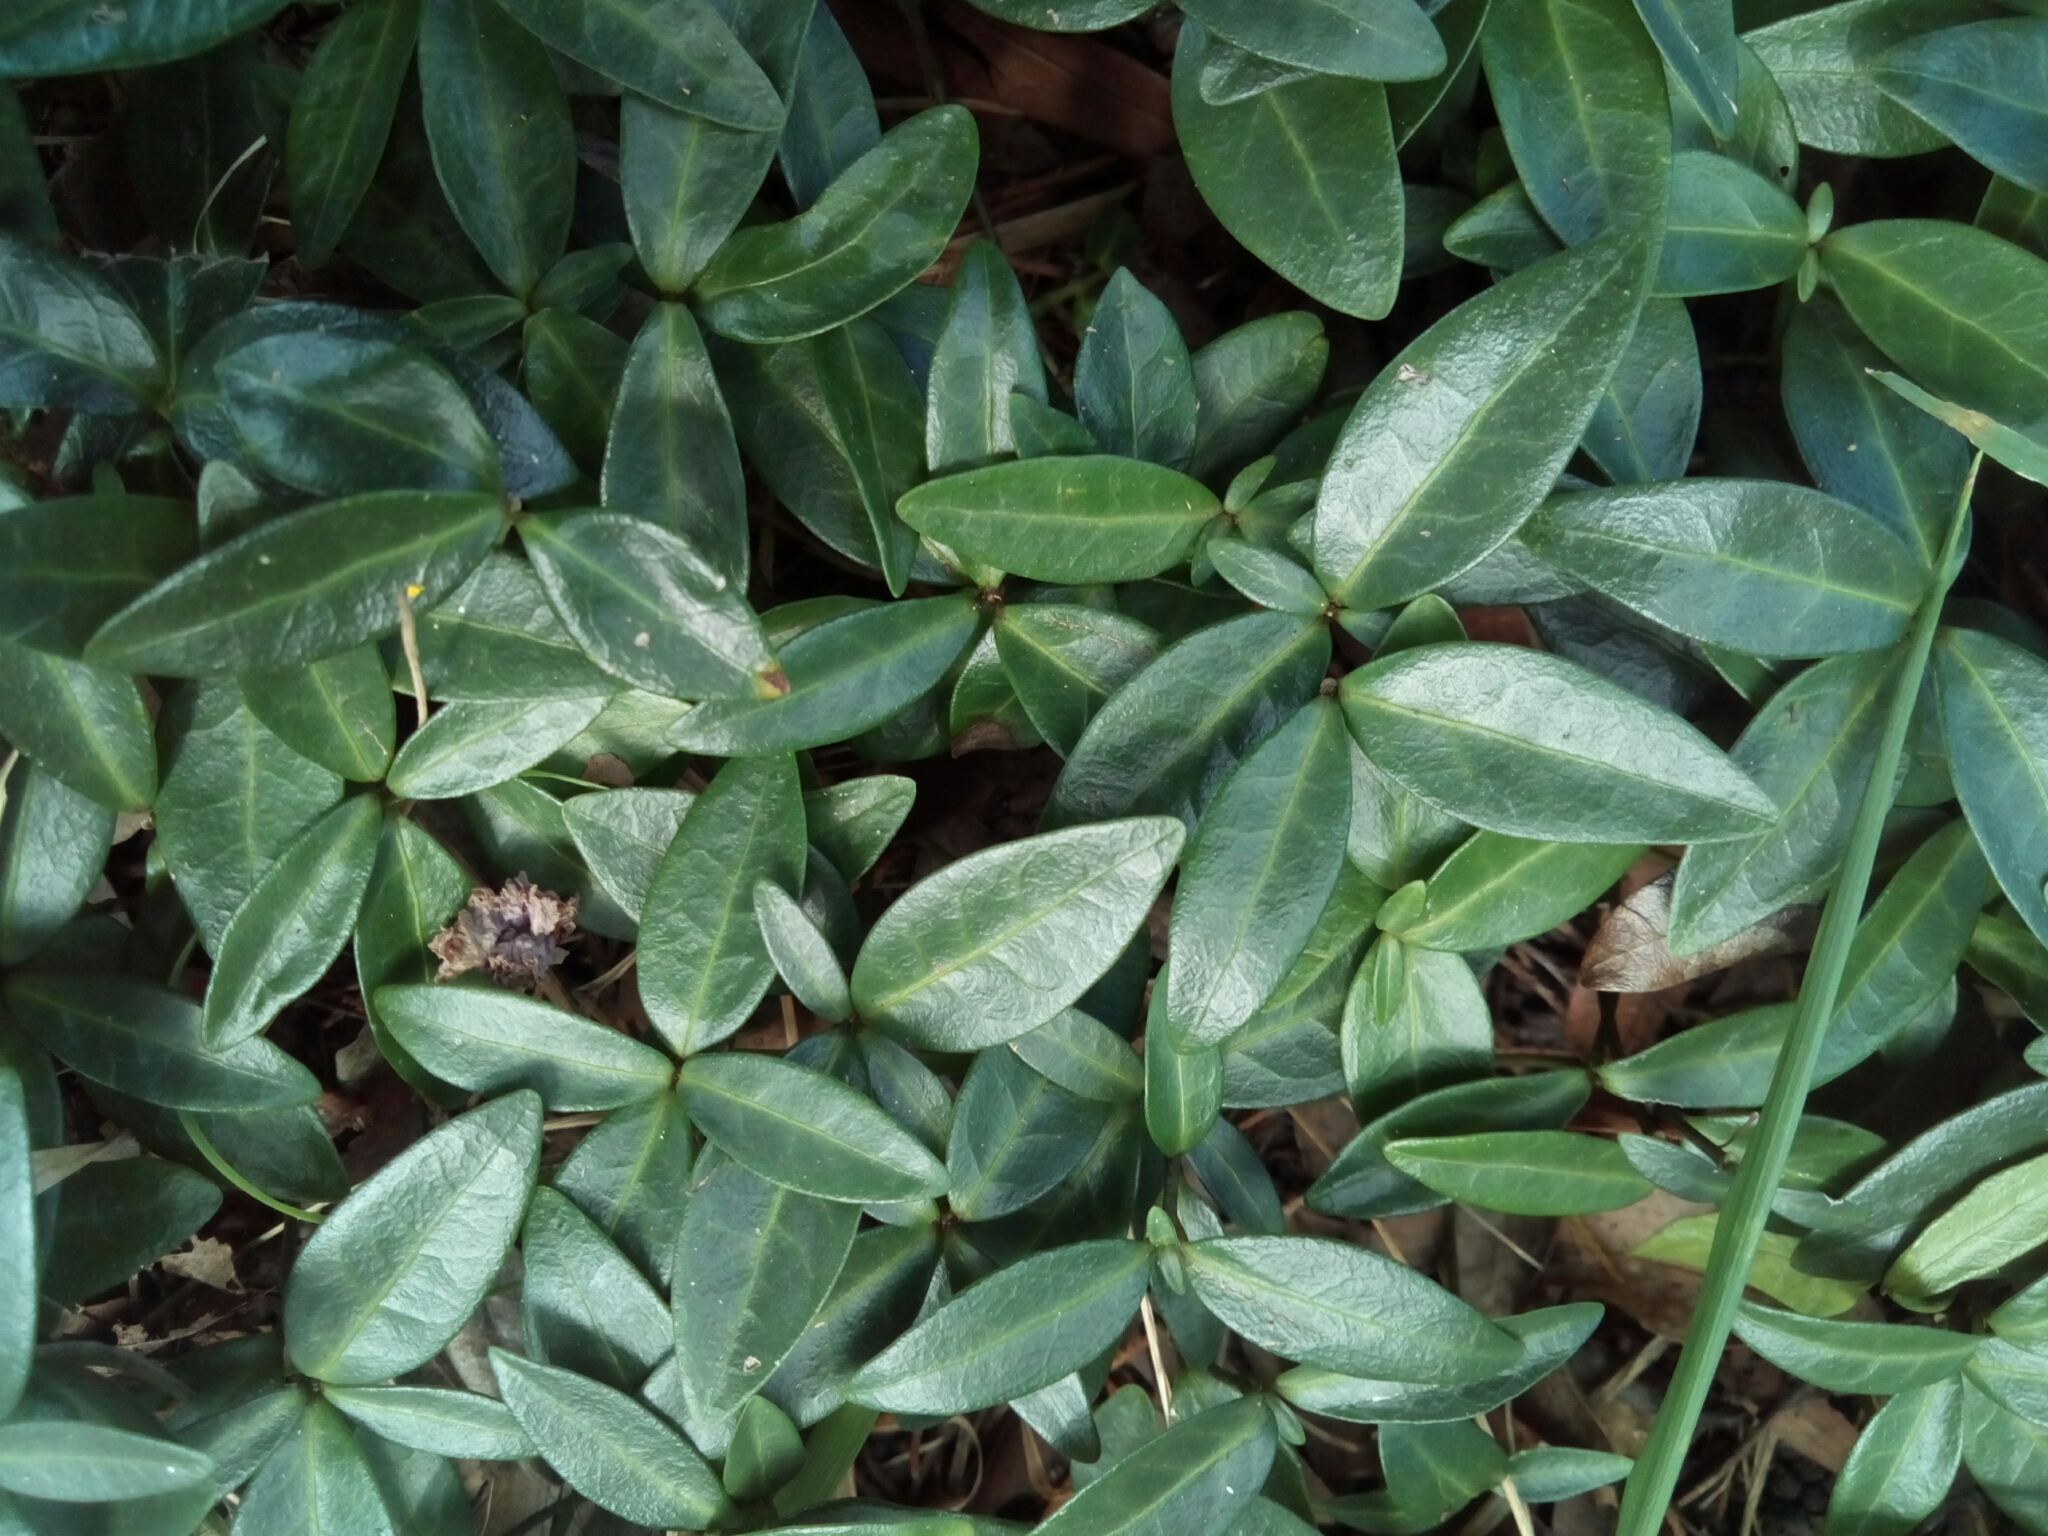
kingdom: Plantae
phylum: Tracheophyta
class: Magnoliopsida
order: Gentianales
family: Apocynaceae
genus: Vinca
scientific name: Vinca minor
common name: Lesser periwinkle
